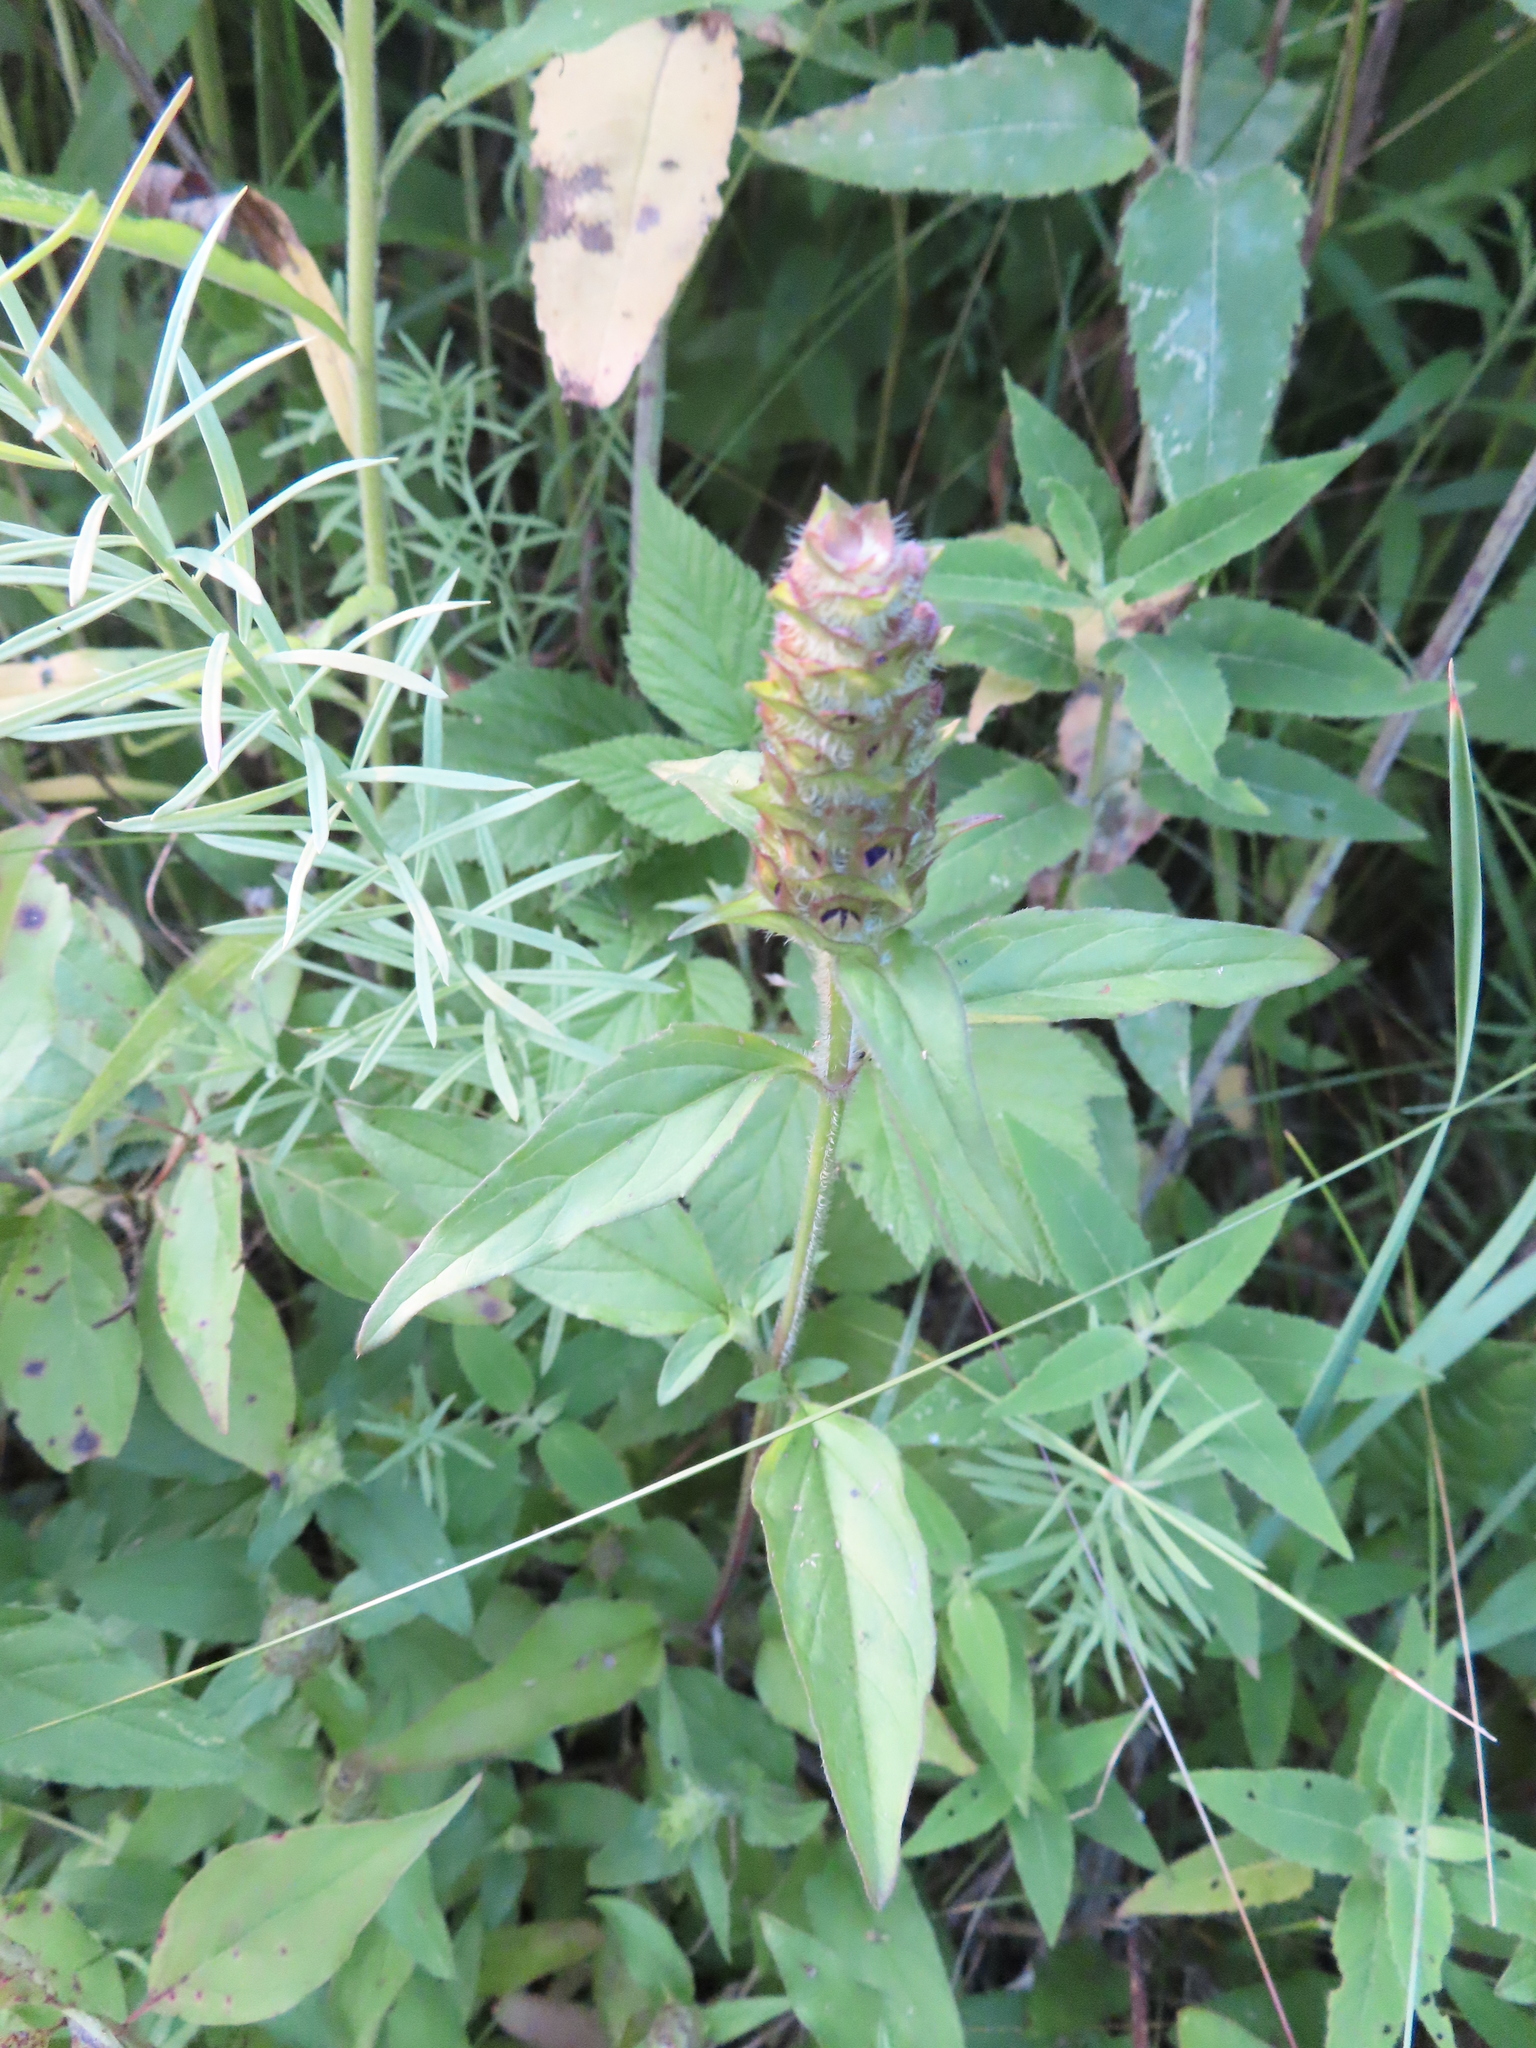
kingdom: Plantae
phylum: Tracheophyta
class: Magnoliopsida
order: Lamiales
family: Lamiaceae
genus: Prunella
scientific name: Prunella vulgaris
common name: Heal-all
